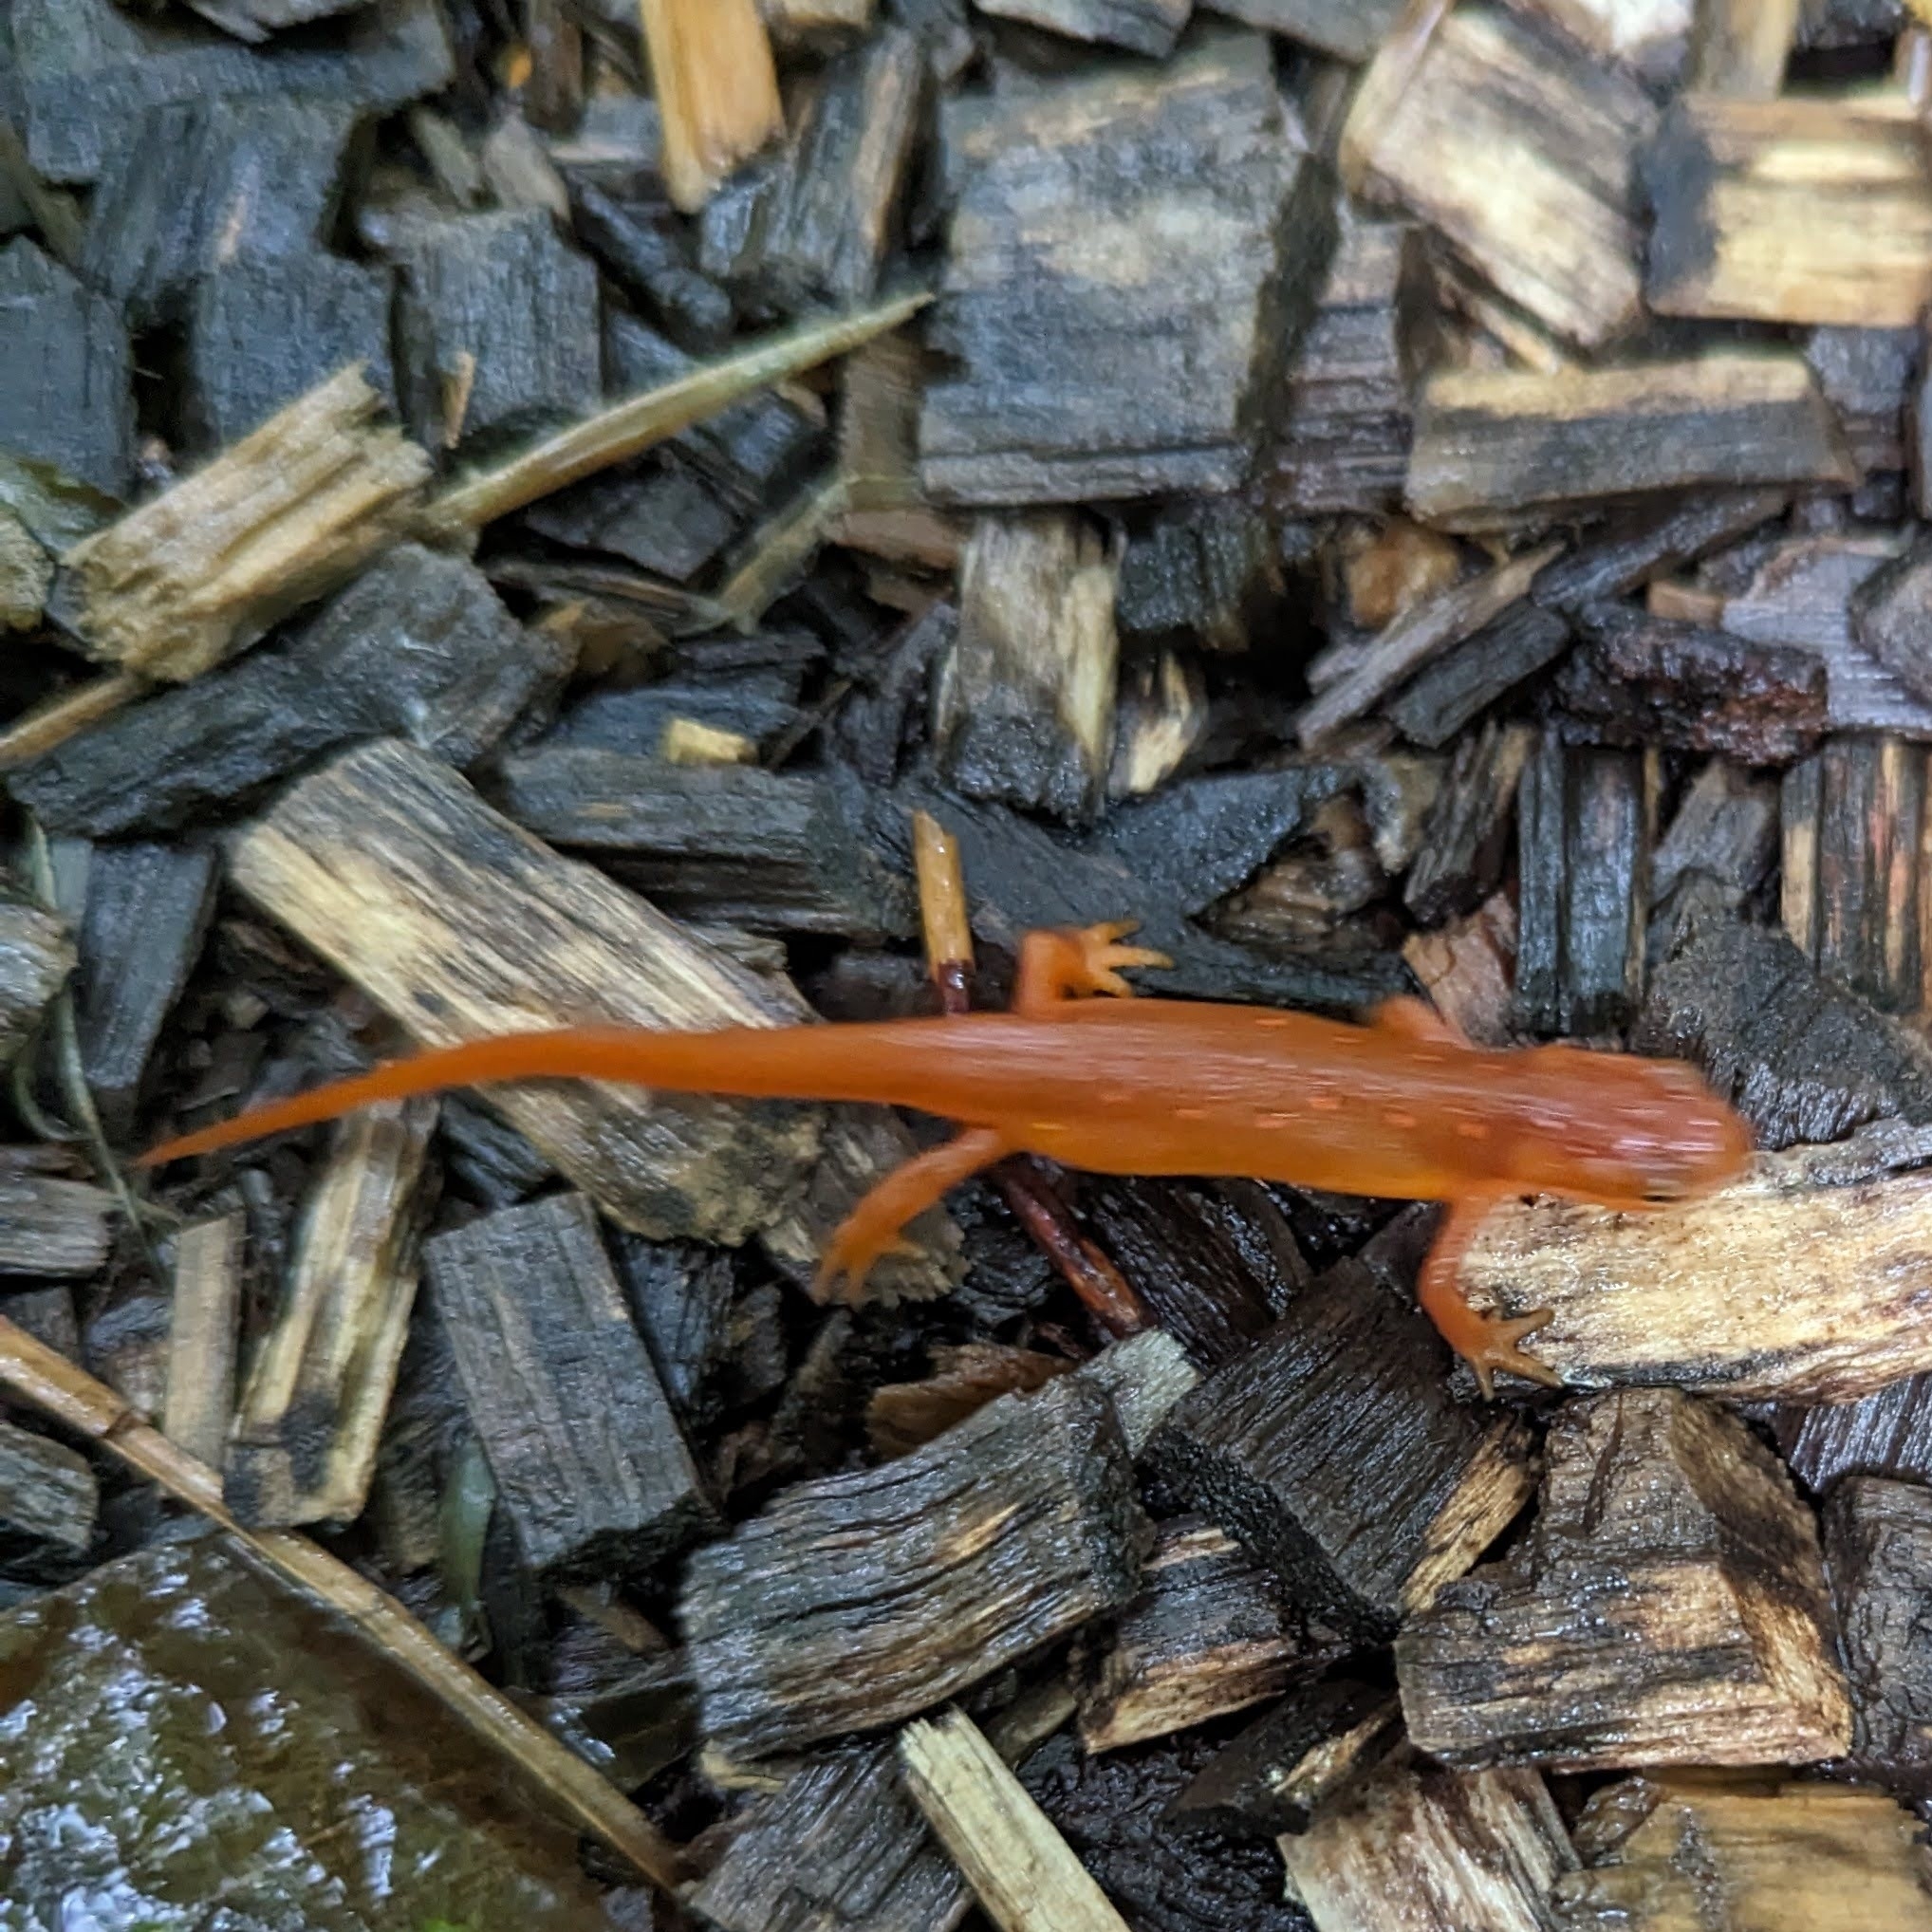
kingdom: Animalia
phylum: Chordata
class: Amphibia
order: Caudata
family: Salamandridae
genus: Notophthalmus
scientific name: Notophthalmus viridescens
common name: Eastern newt
